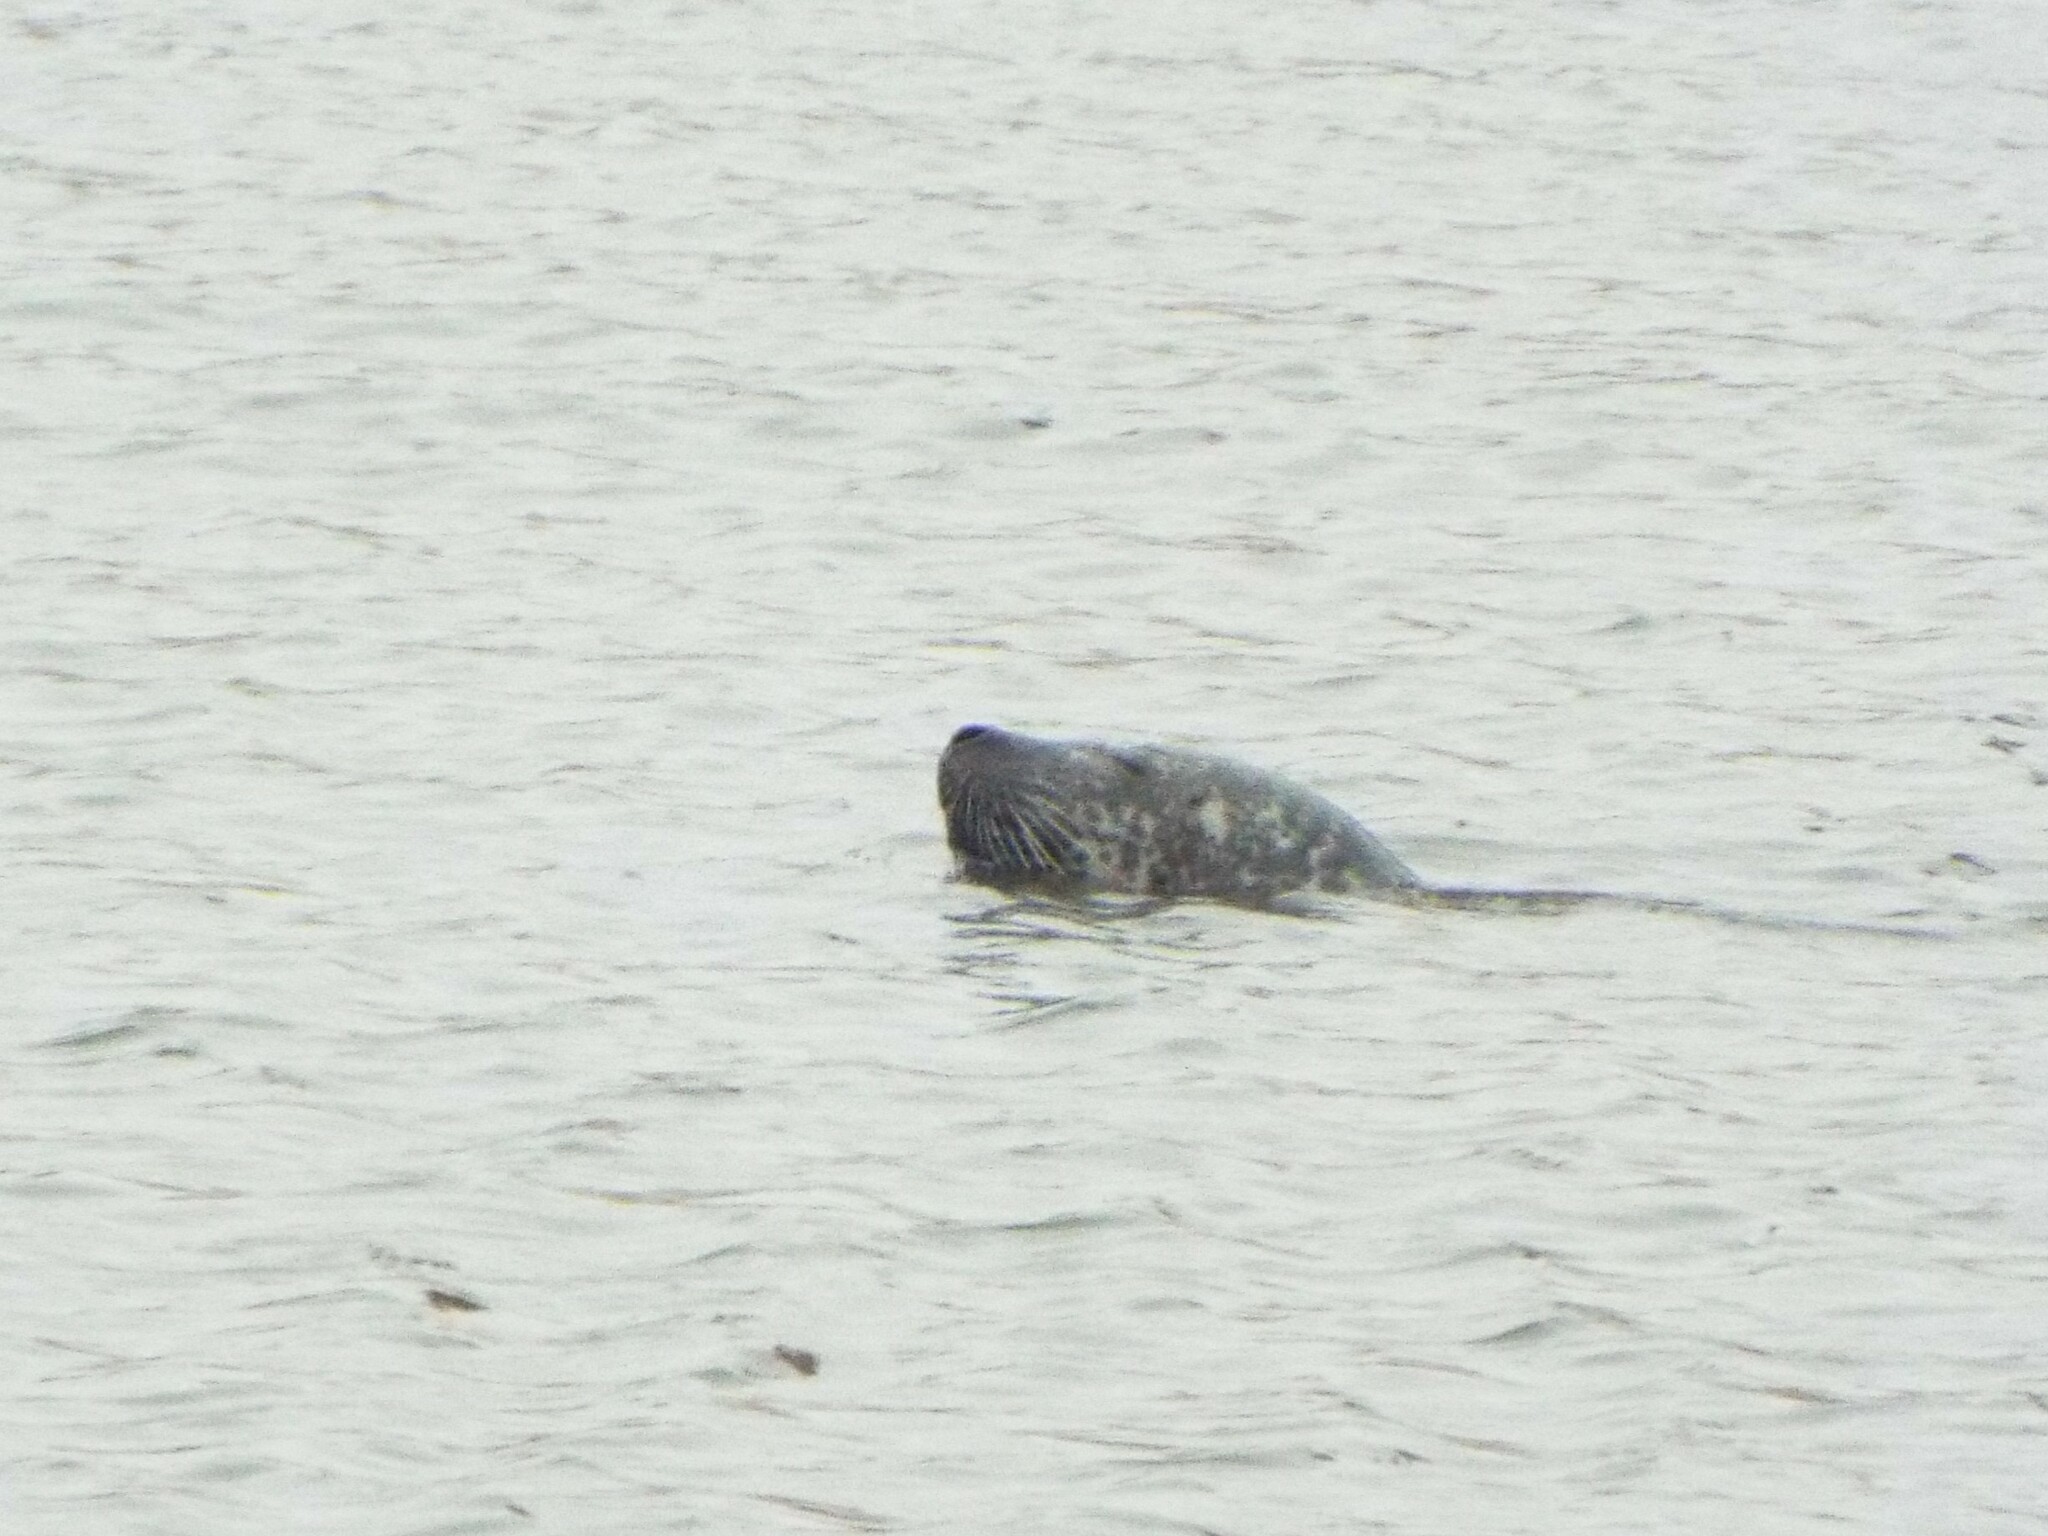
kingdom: Animalia
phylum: Chordata
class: Mammalia
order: Carnivora
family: Phocidae
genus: Phoca
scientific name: Phoca vitulina
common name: Harbor seal
